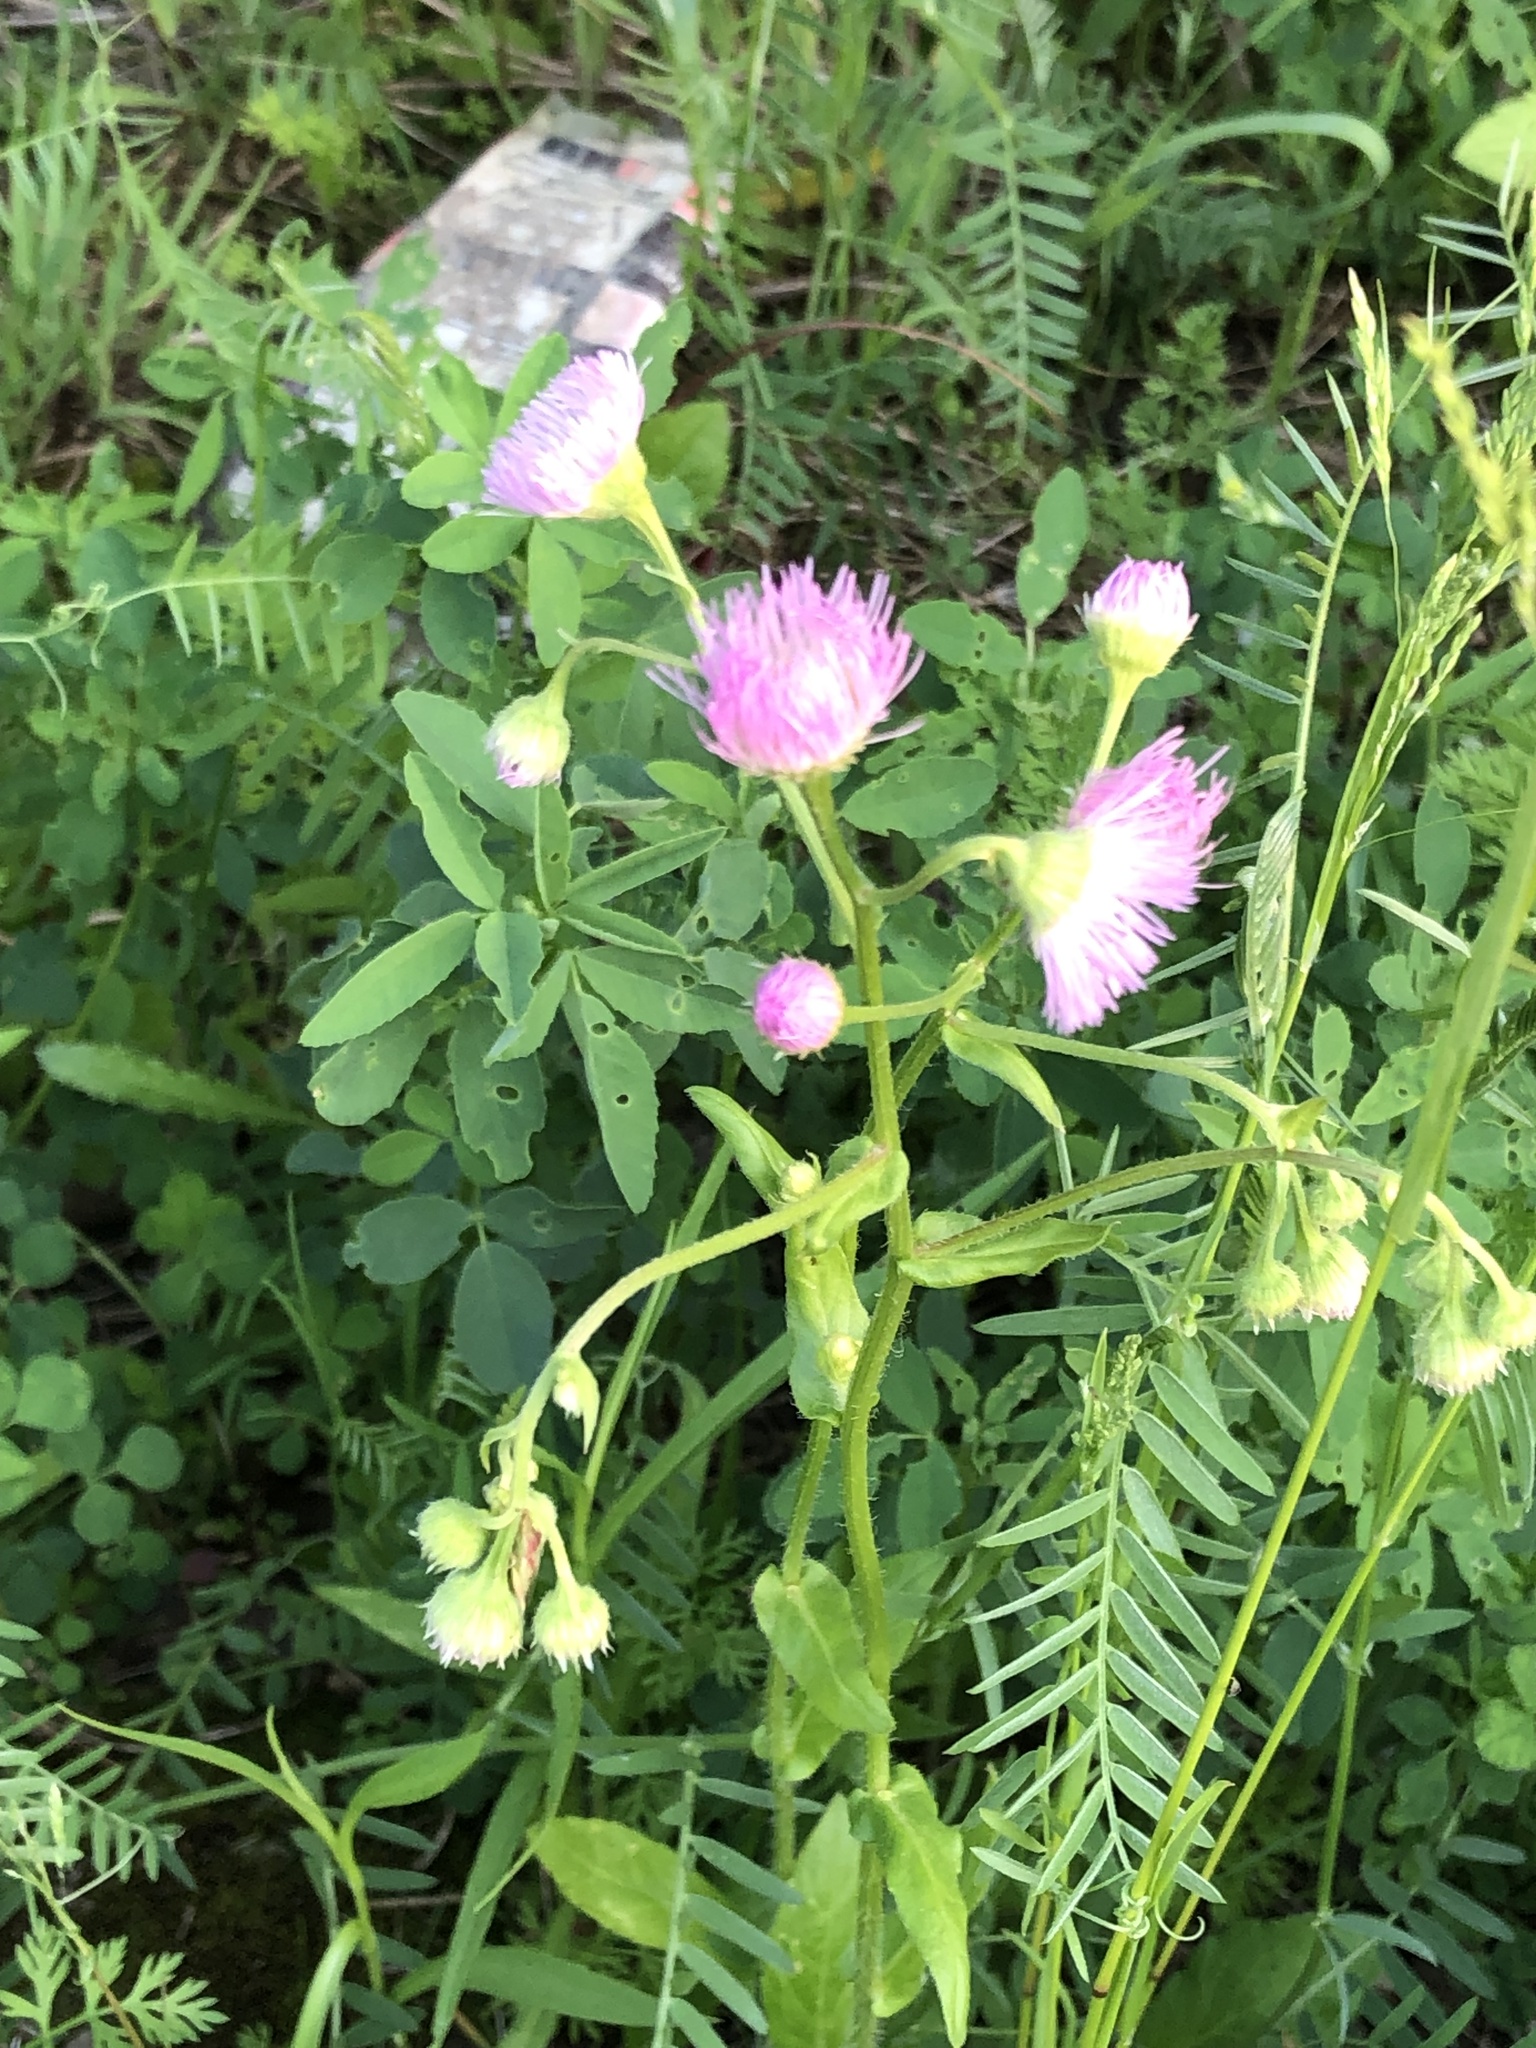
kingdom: Plantae
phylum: Tracheophyta
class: Magnoliopsida
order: Asterales
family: Asteraceae
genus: Erigeron
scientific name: Erigeron philadelphicus
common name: Robin's-plantain
